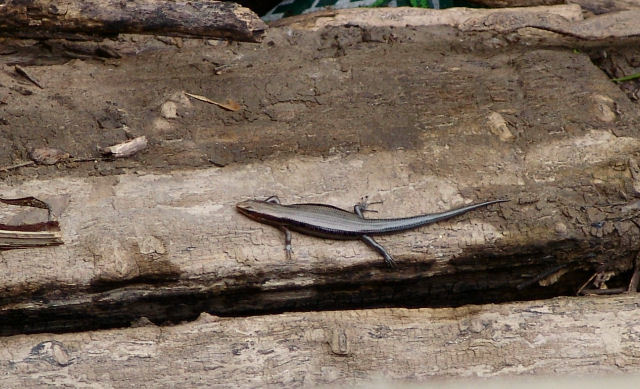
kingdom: Animalia
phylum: Chordata
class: Squamata
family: Scincidae
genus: Plestiodon
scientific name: Plestiodon fasciatus
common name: Five-lined skink
